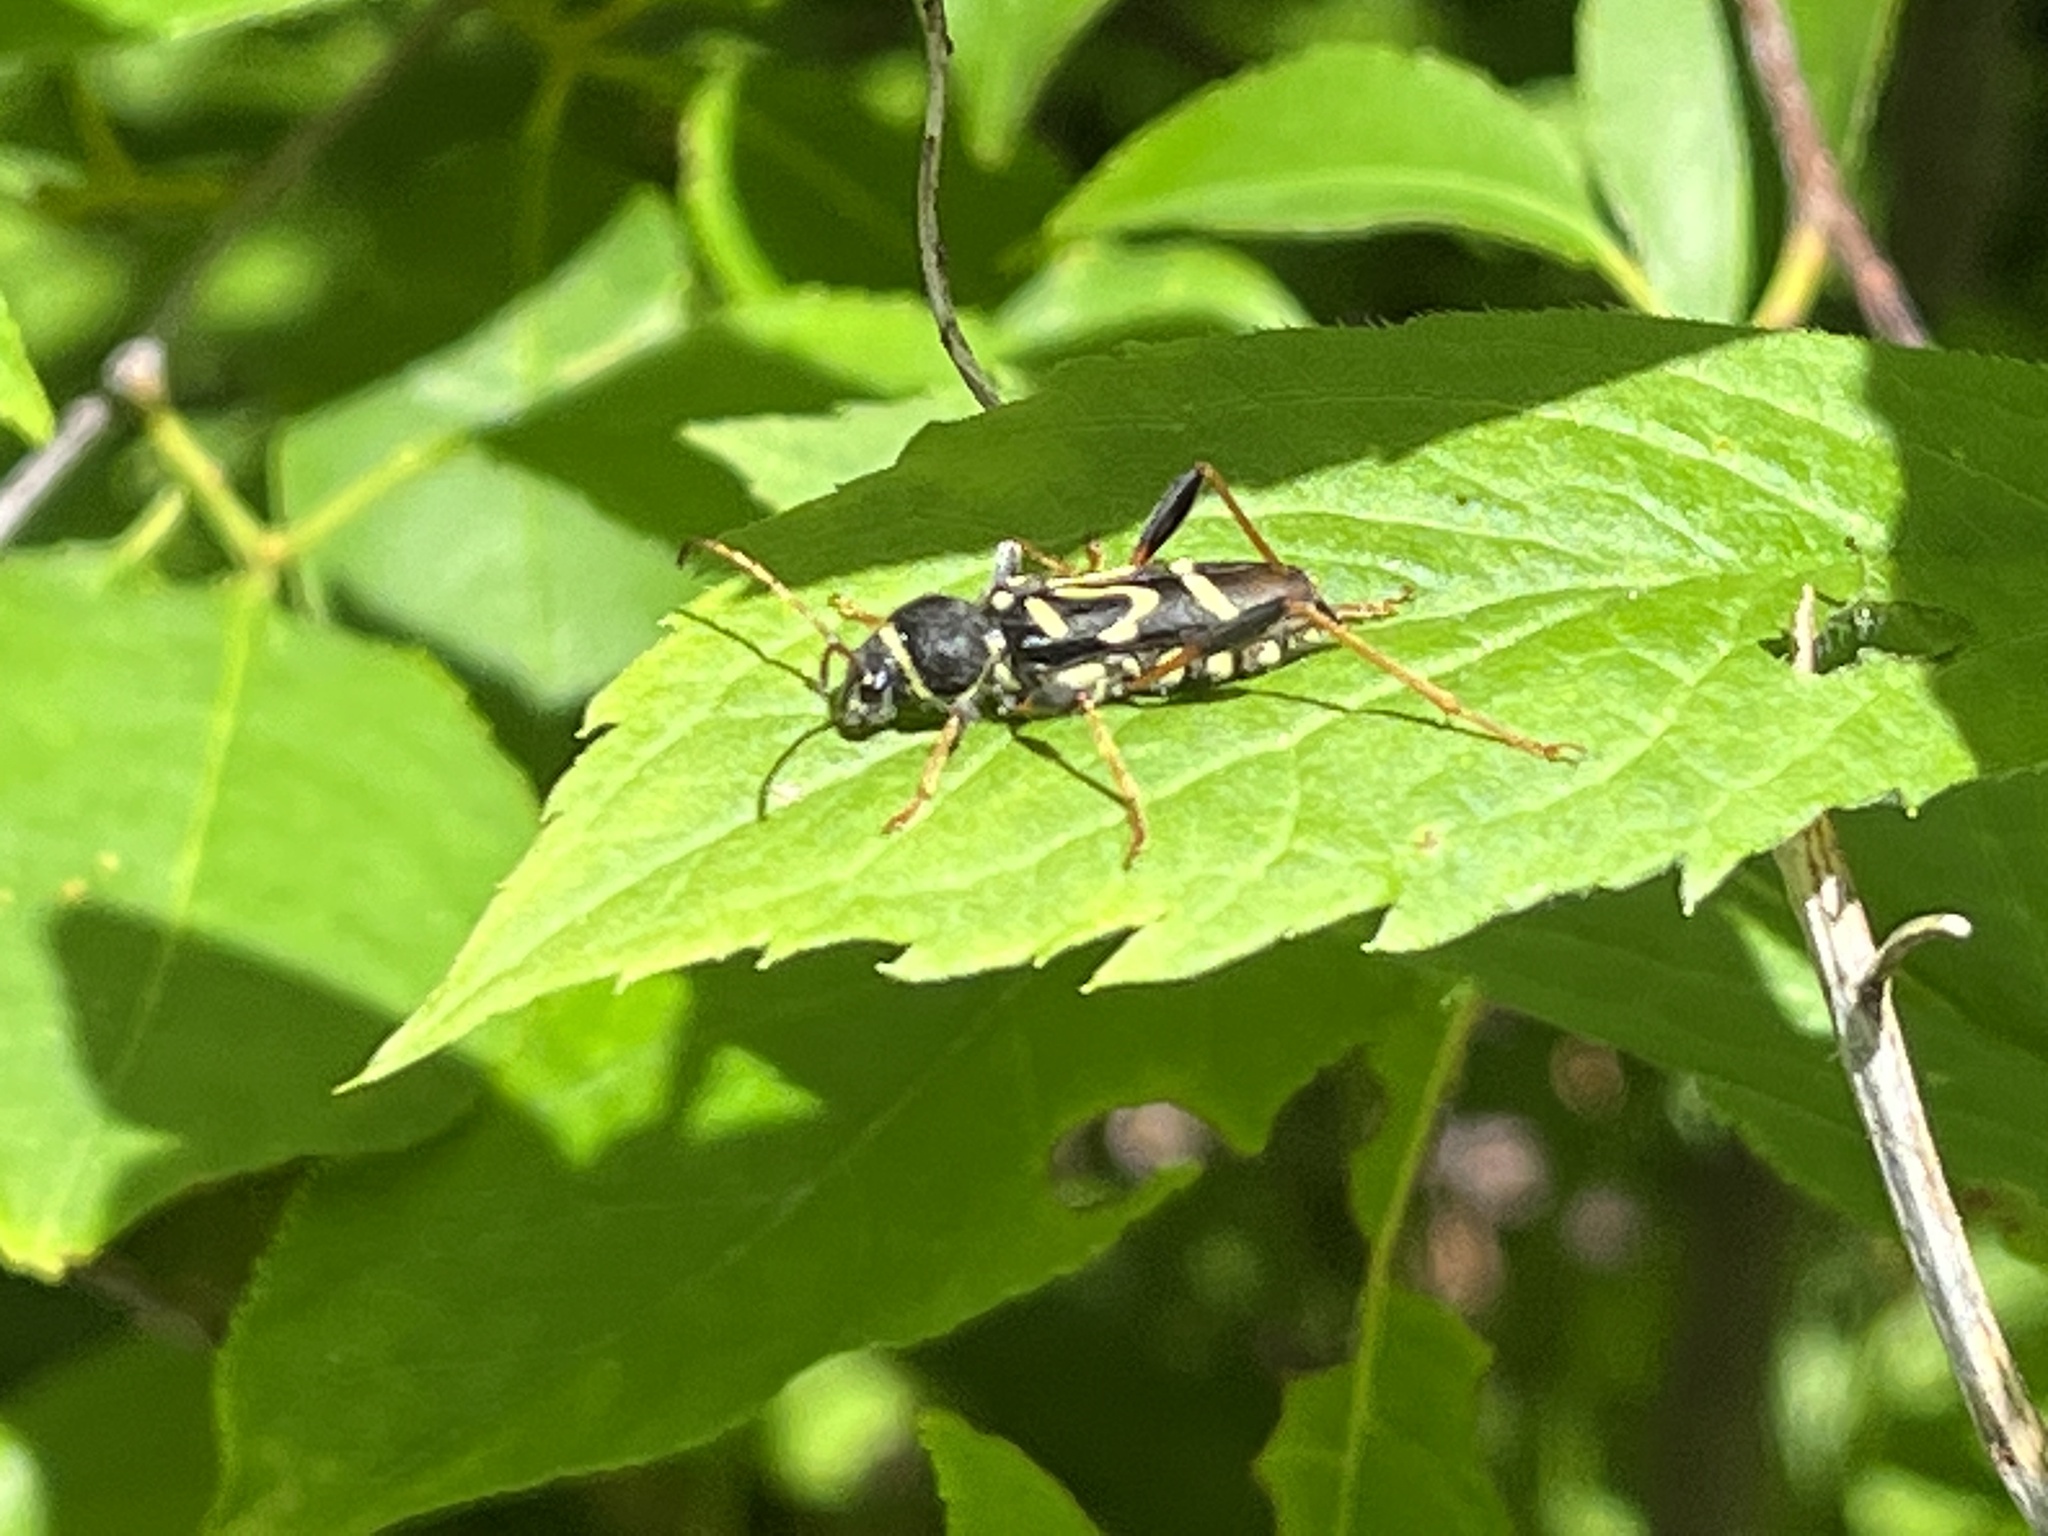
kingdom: Animalia
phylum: Arthropoda
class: Insecta
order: Coleoptera
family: Cerambycidae
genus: Clytus
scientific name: Clytus ruricola
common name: Round-necked longhorn beetle
